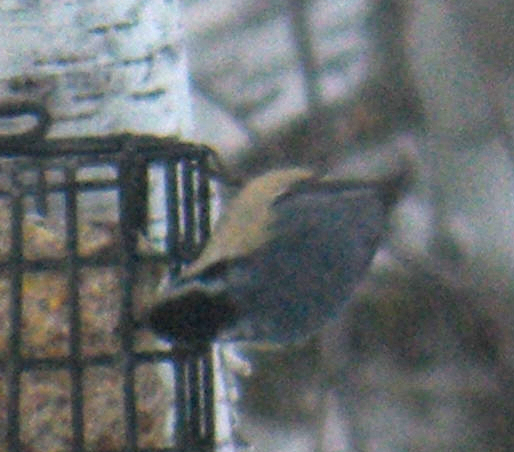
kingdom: Animalia
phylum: Chordata
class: Aves
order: Passeriformes
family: Sittidae
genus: Sitta
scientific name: Sitta canadensis
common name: Red-breasted nuthatch
